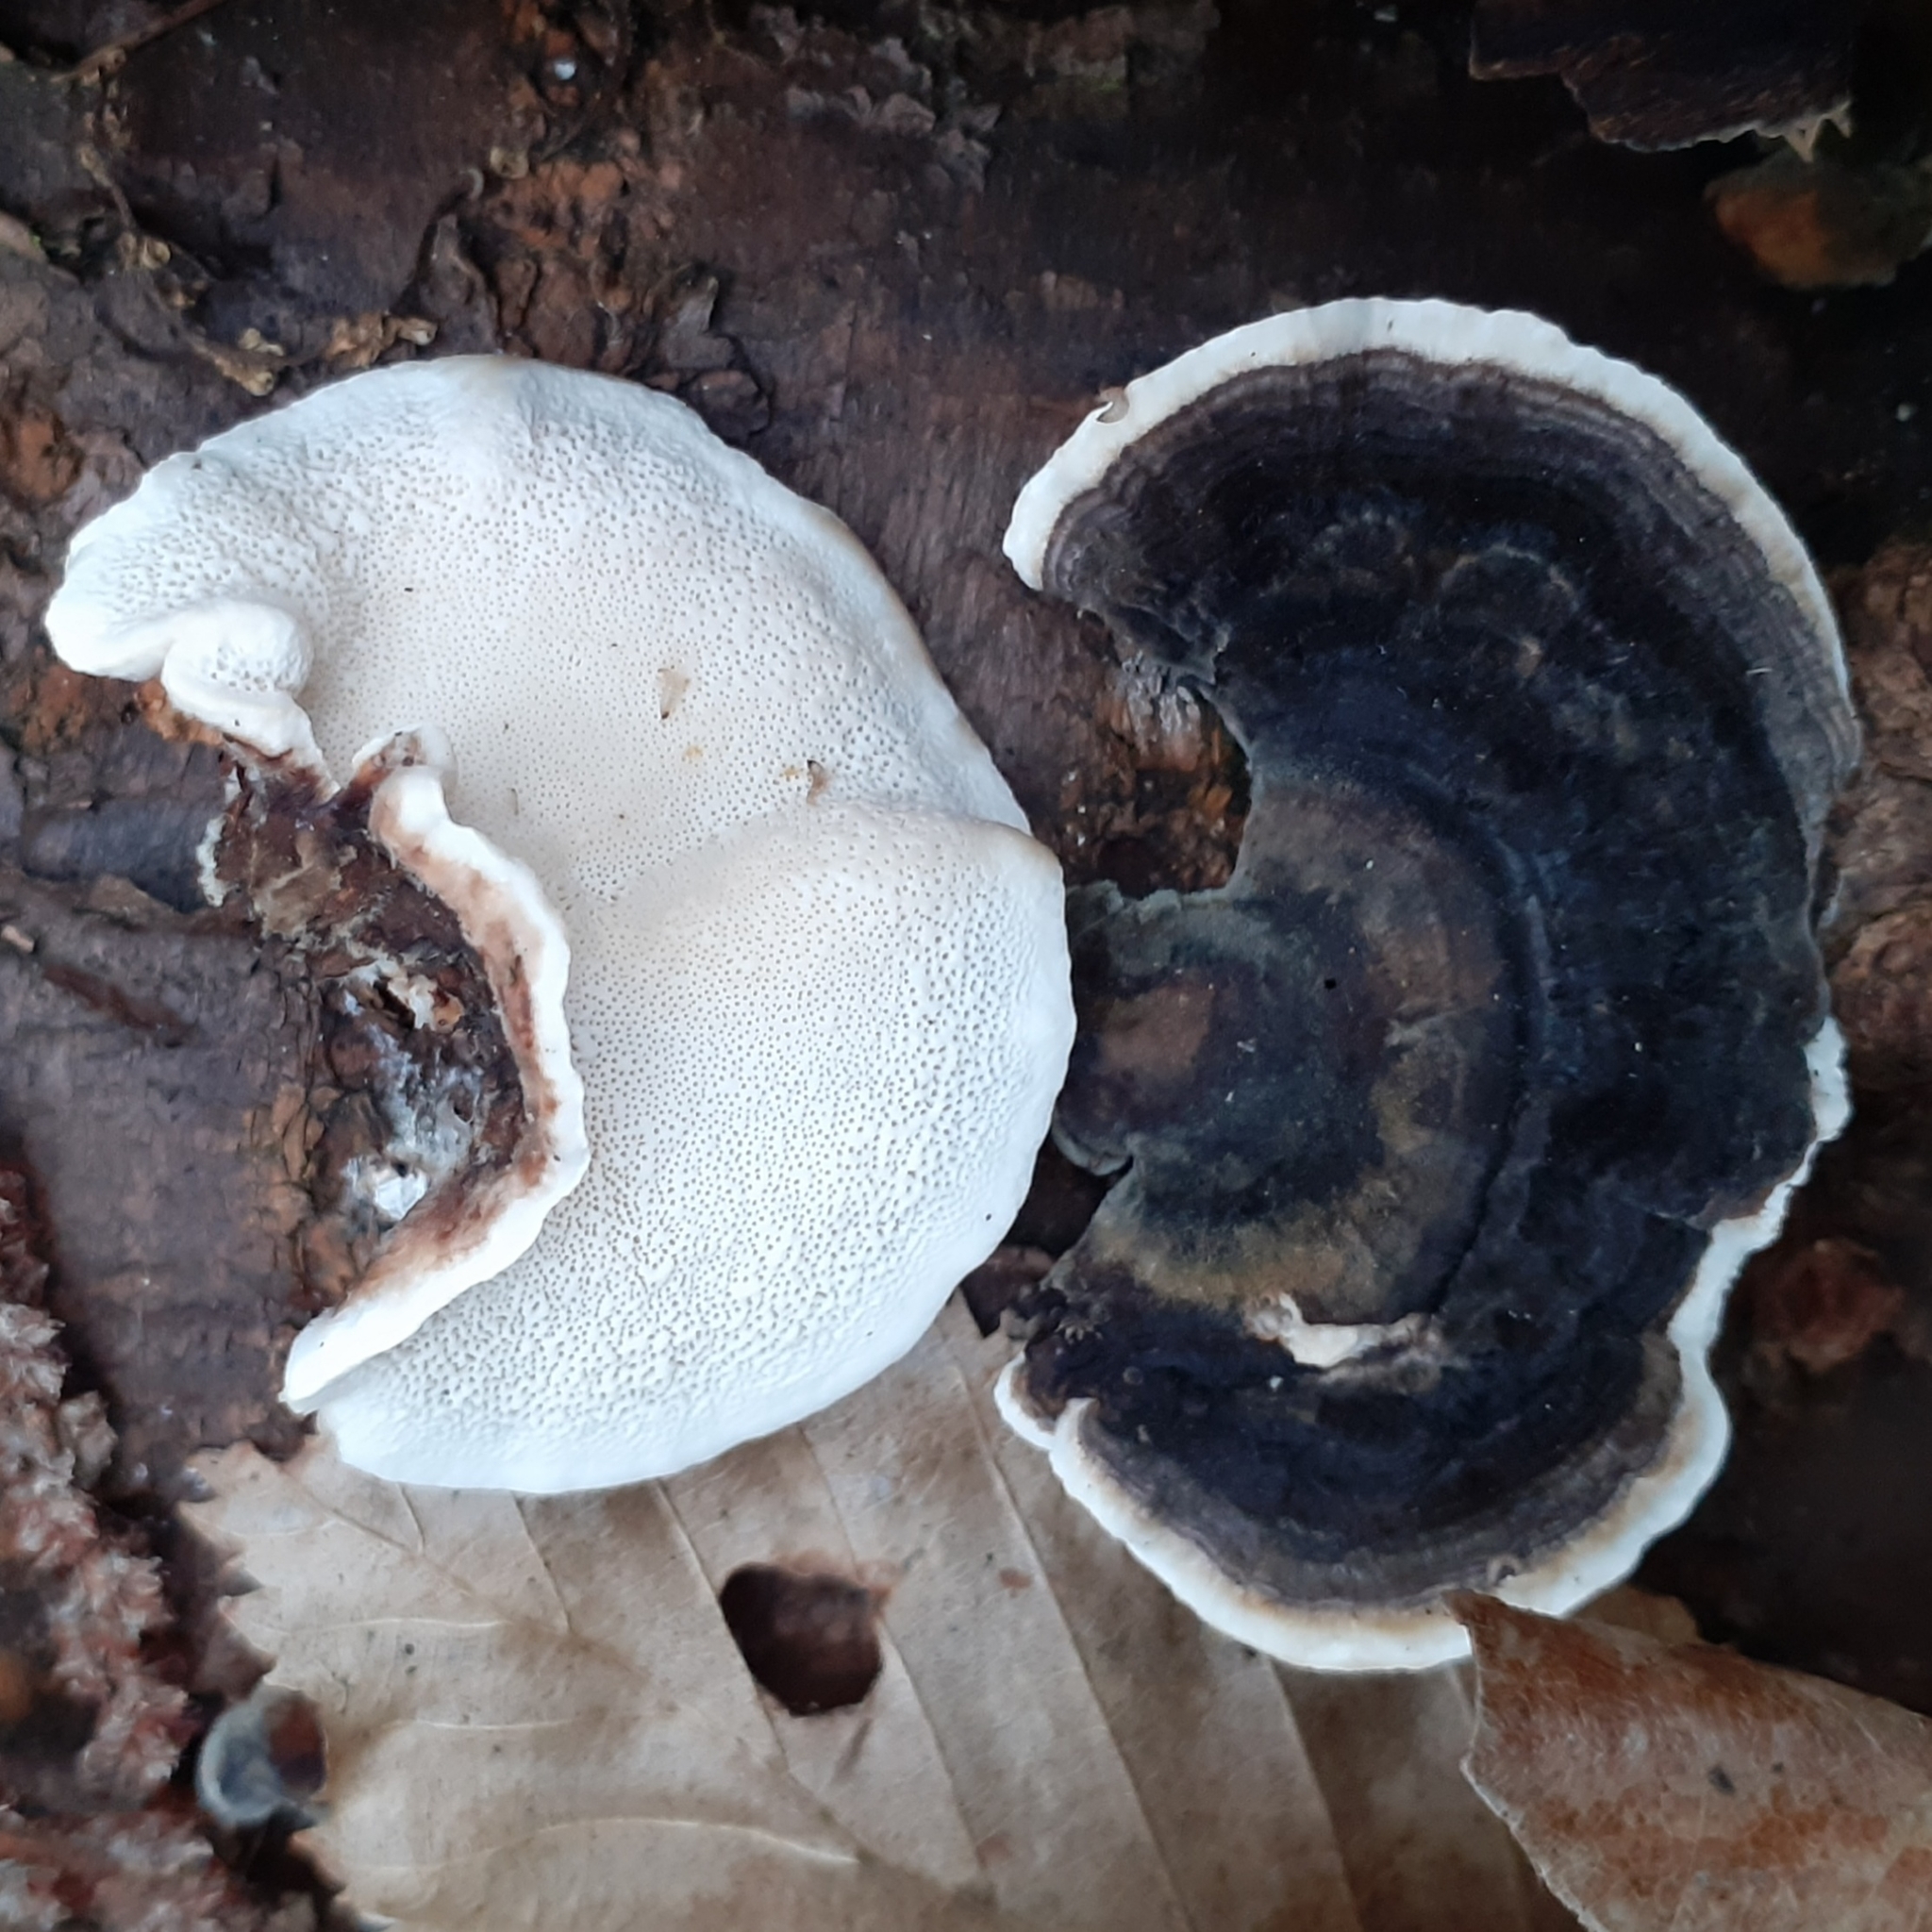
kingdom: Fungi
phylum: Basidiomycota
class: Agaricomycetes
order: Polyporales
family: Polyporaceae
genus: Trametes
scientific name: Trametes versicolor
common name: Turkeytail
